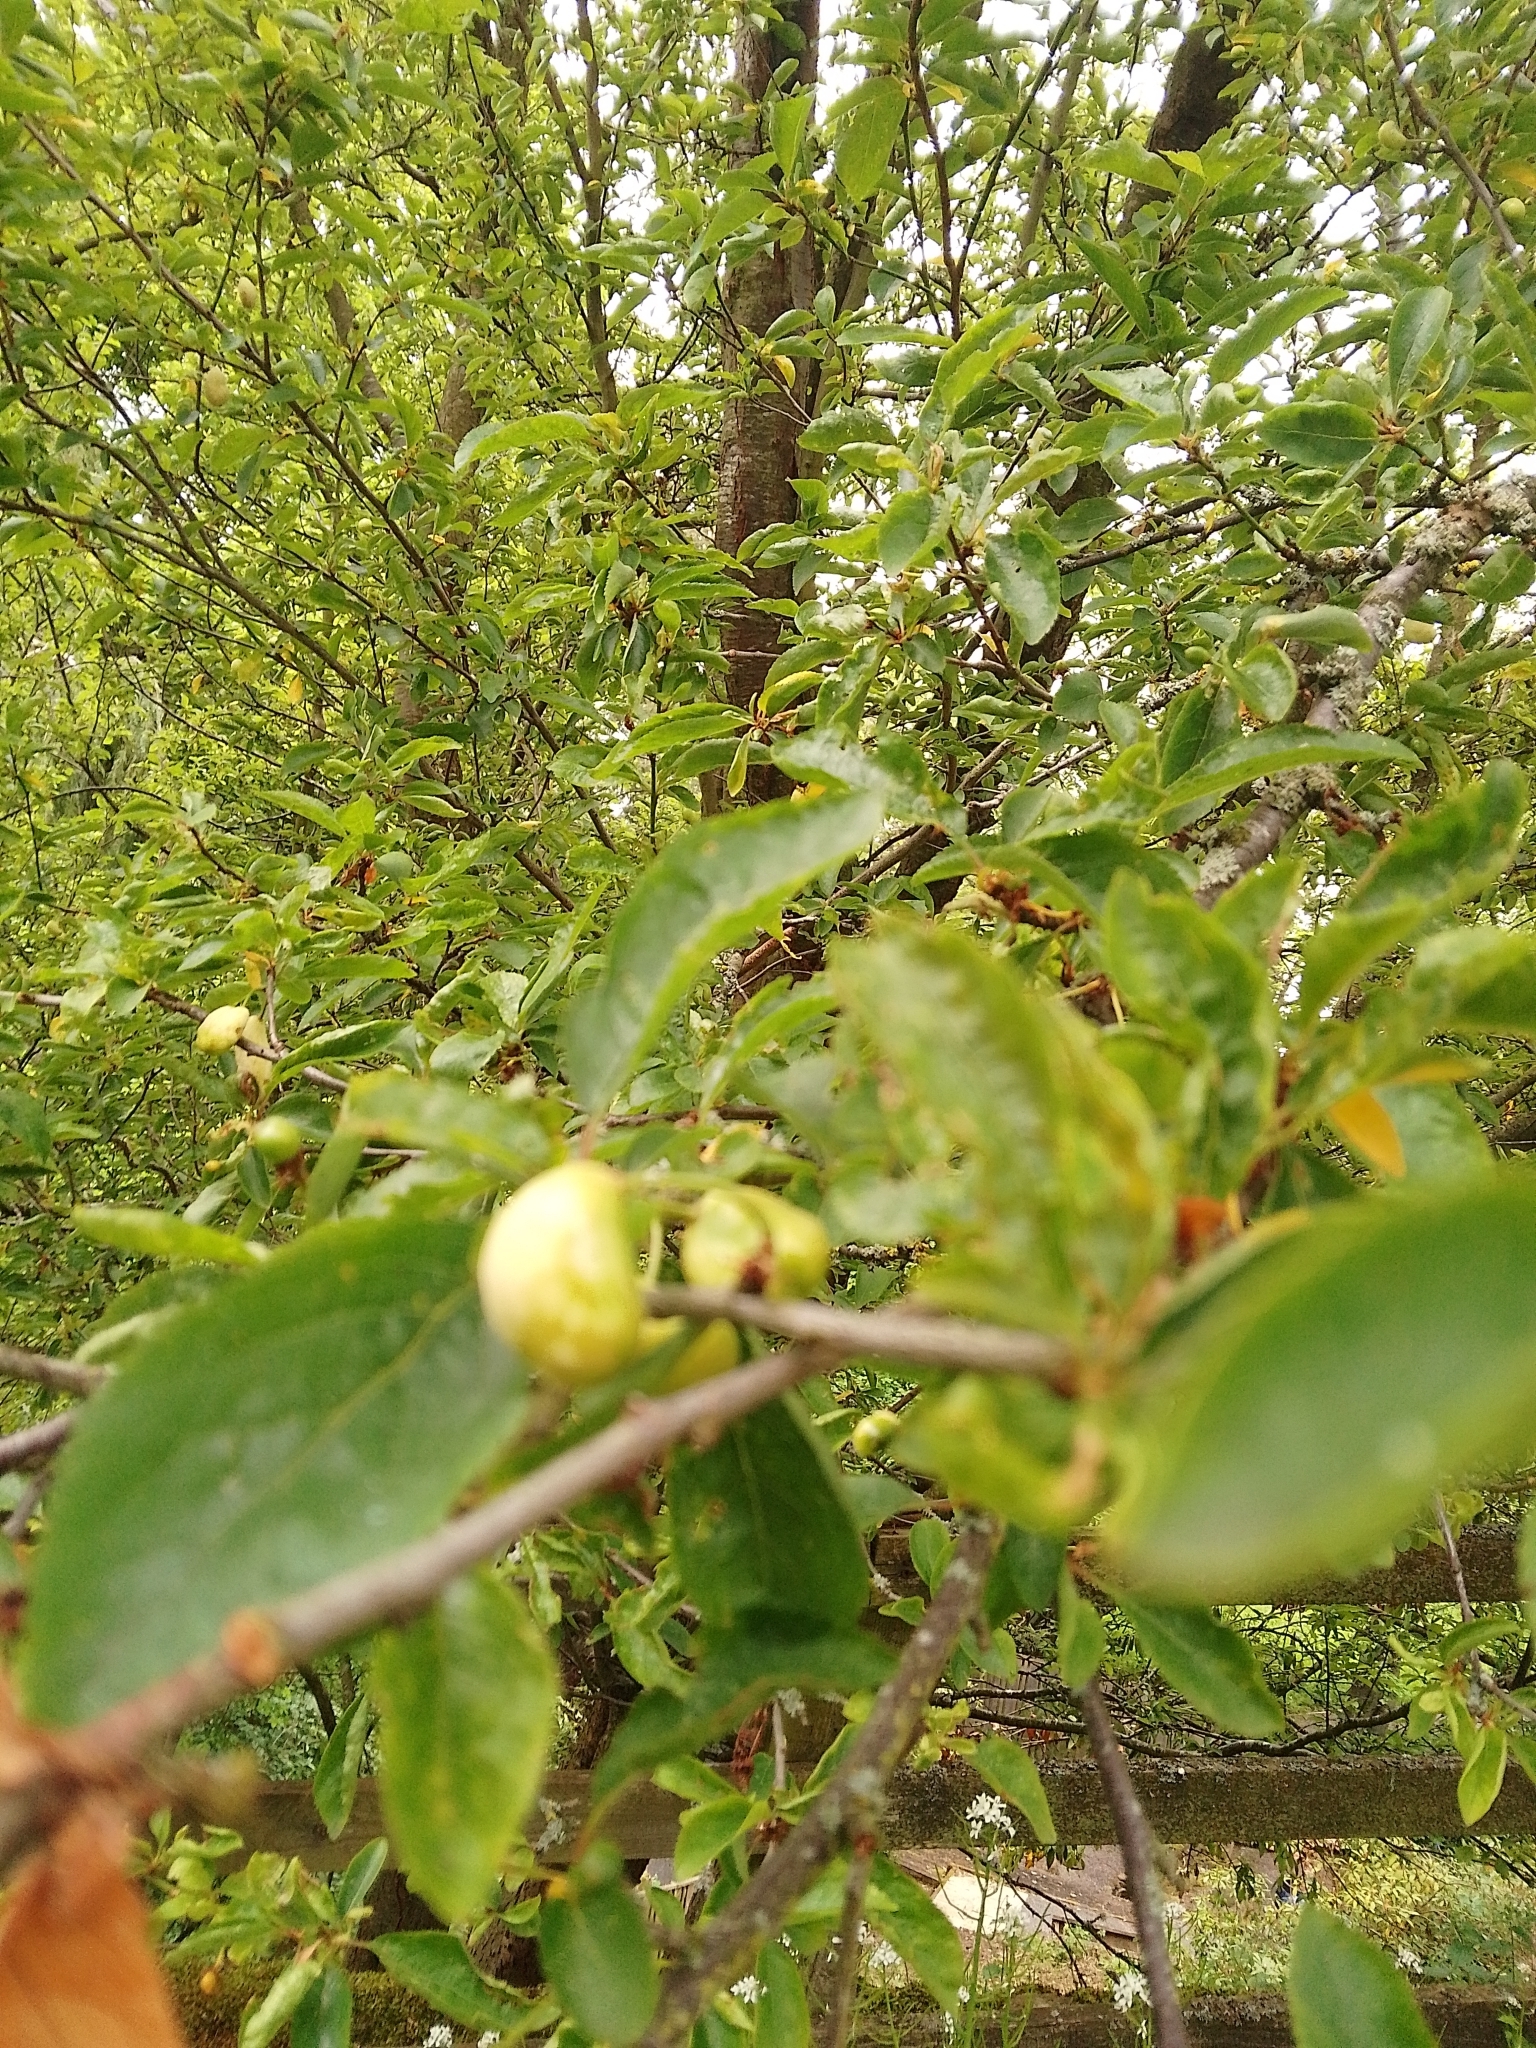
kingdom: Fungi
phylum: Ascomycota
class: Taphrinomycetes
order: Taphrinales
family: Taphrinaceae
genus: Taphrina
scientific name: Taphrina pruni
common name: Pocket plum
